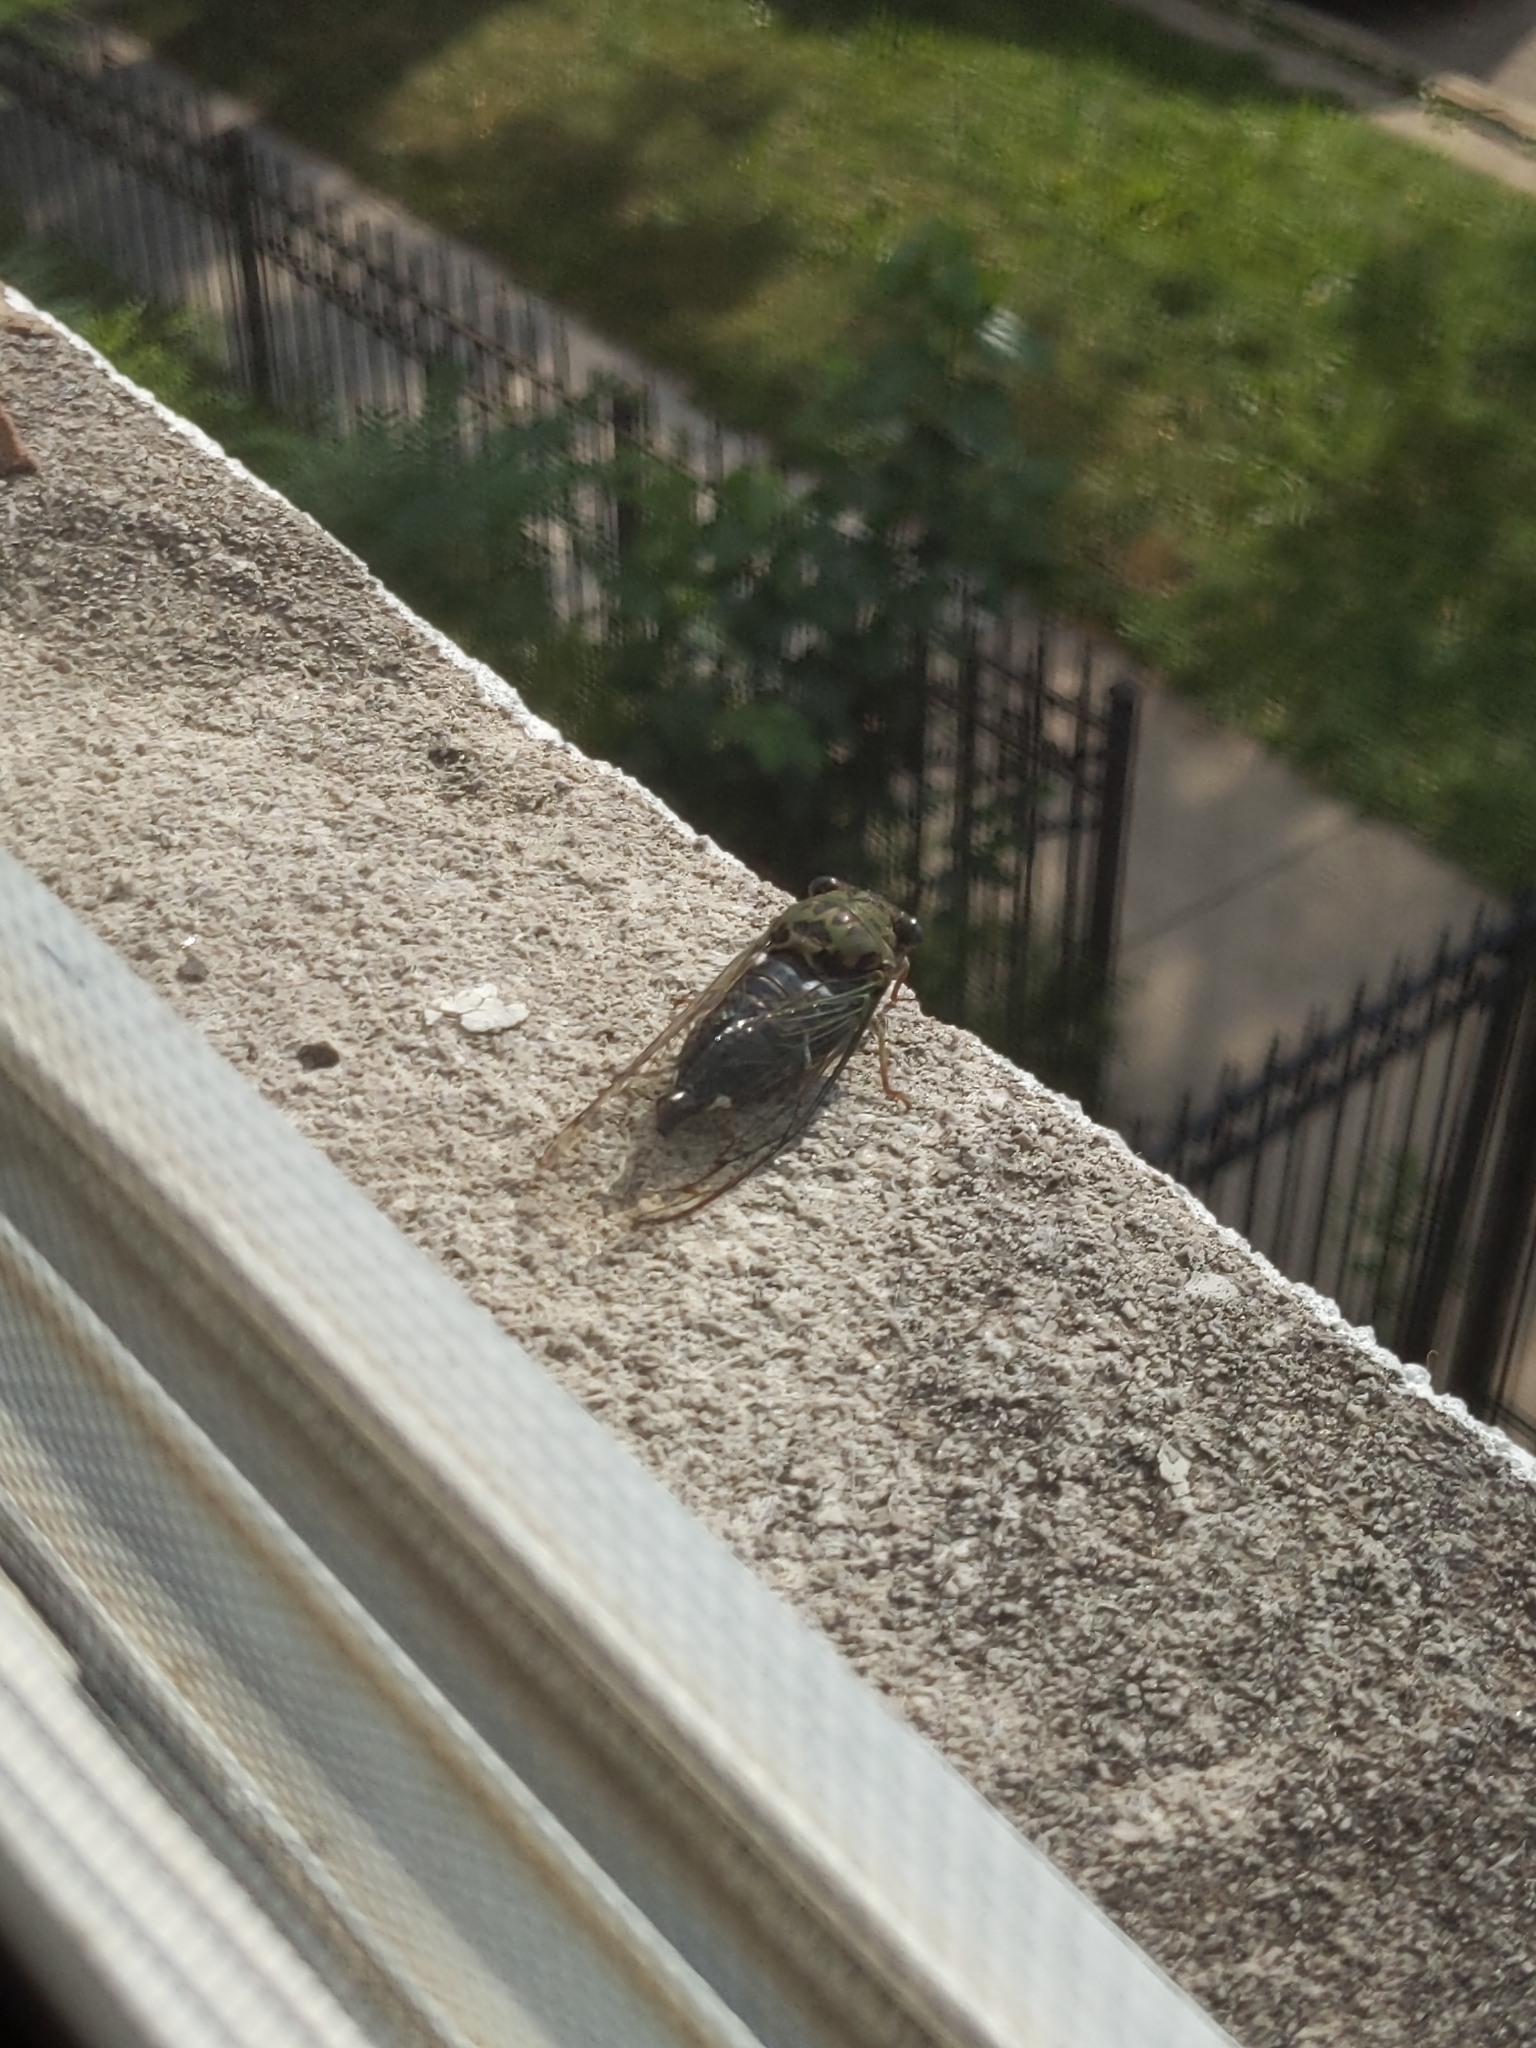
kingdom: Animalia
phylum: Arthropoda
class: Insecta
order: Hemiptera
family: Cicadidae
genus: Neotibicen
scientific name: Neotibicen pruinosus
